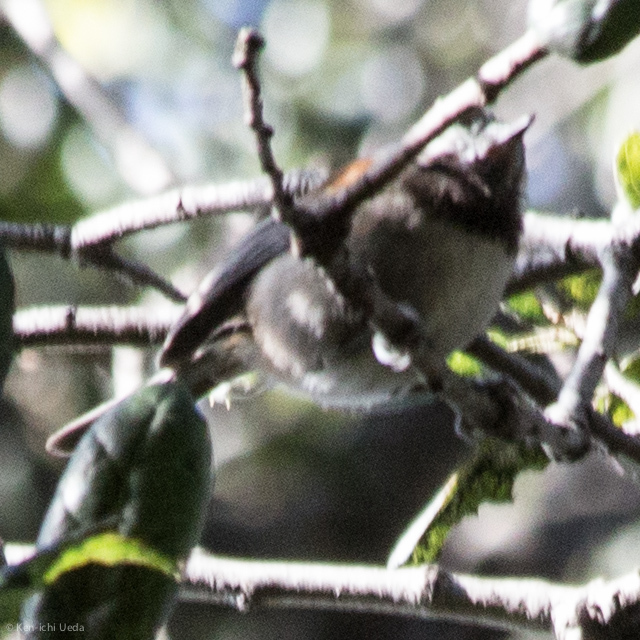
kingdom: Animalia
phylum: Chordata
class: Aves
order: Passeriformes
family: Paridae
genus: Poecile
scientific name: Poecile rufescens
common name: Chestnut-backed chickadee
